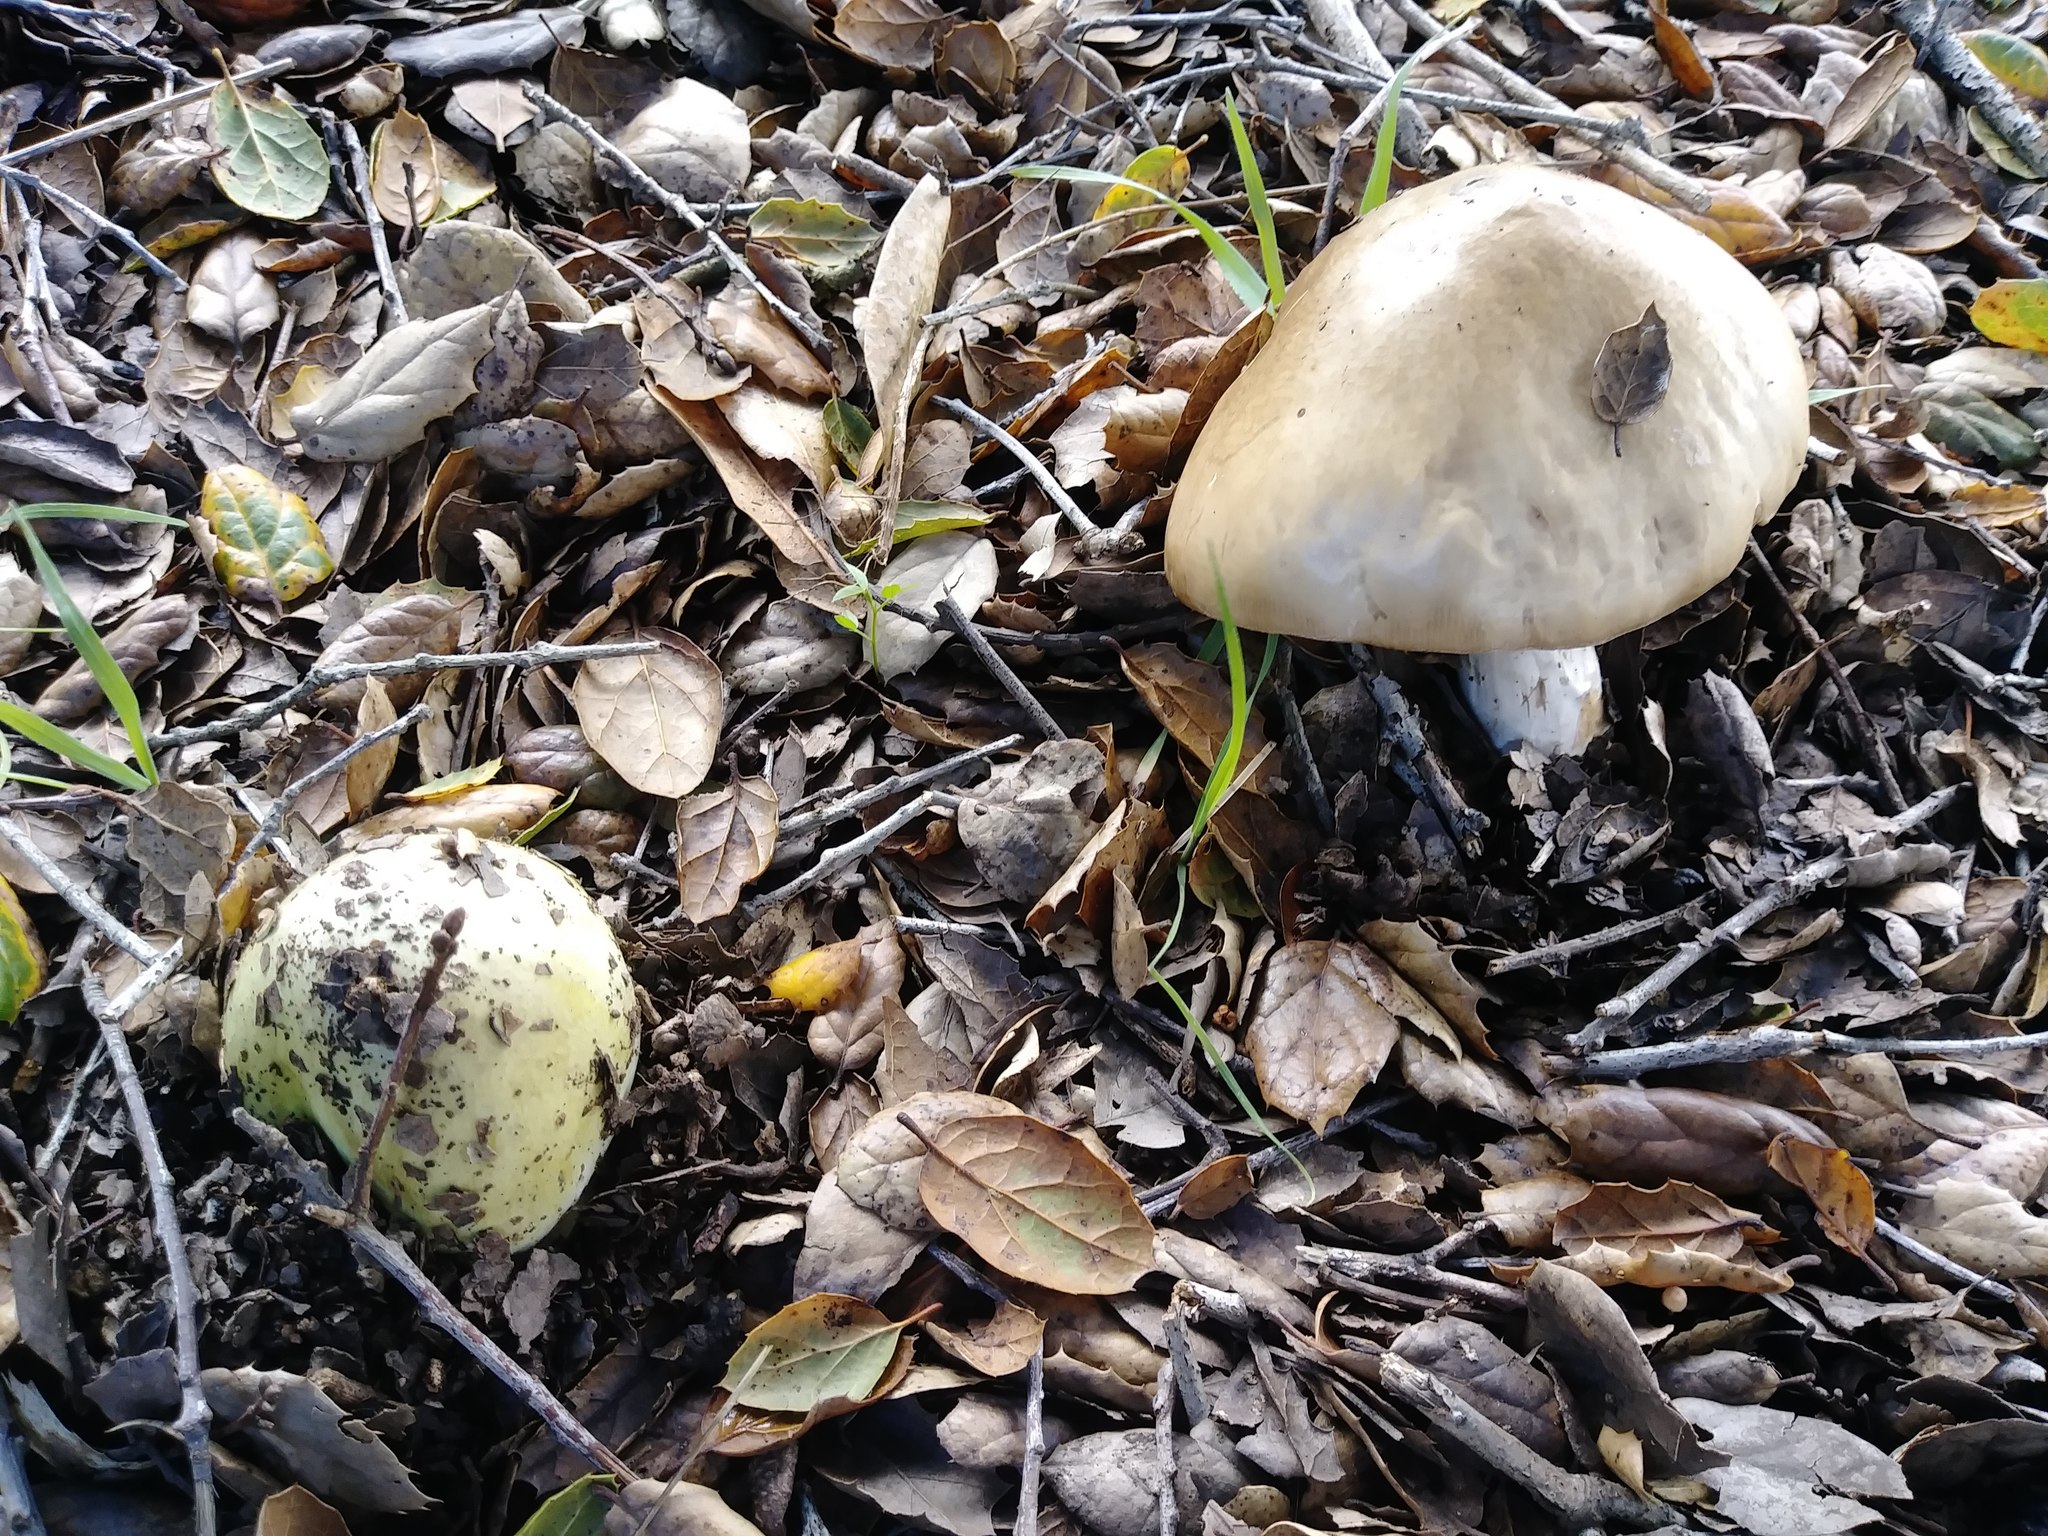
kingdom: Fungi
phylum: Basidiomycota
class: Agaricomycetes
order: Agaricales
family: Amanitaceae
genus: Amanita
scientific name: Amanita phalloides
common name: Death cap
